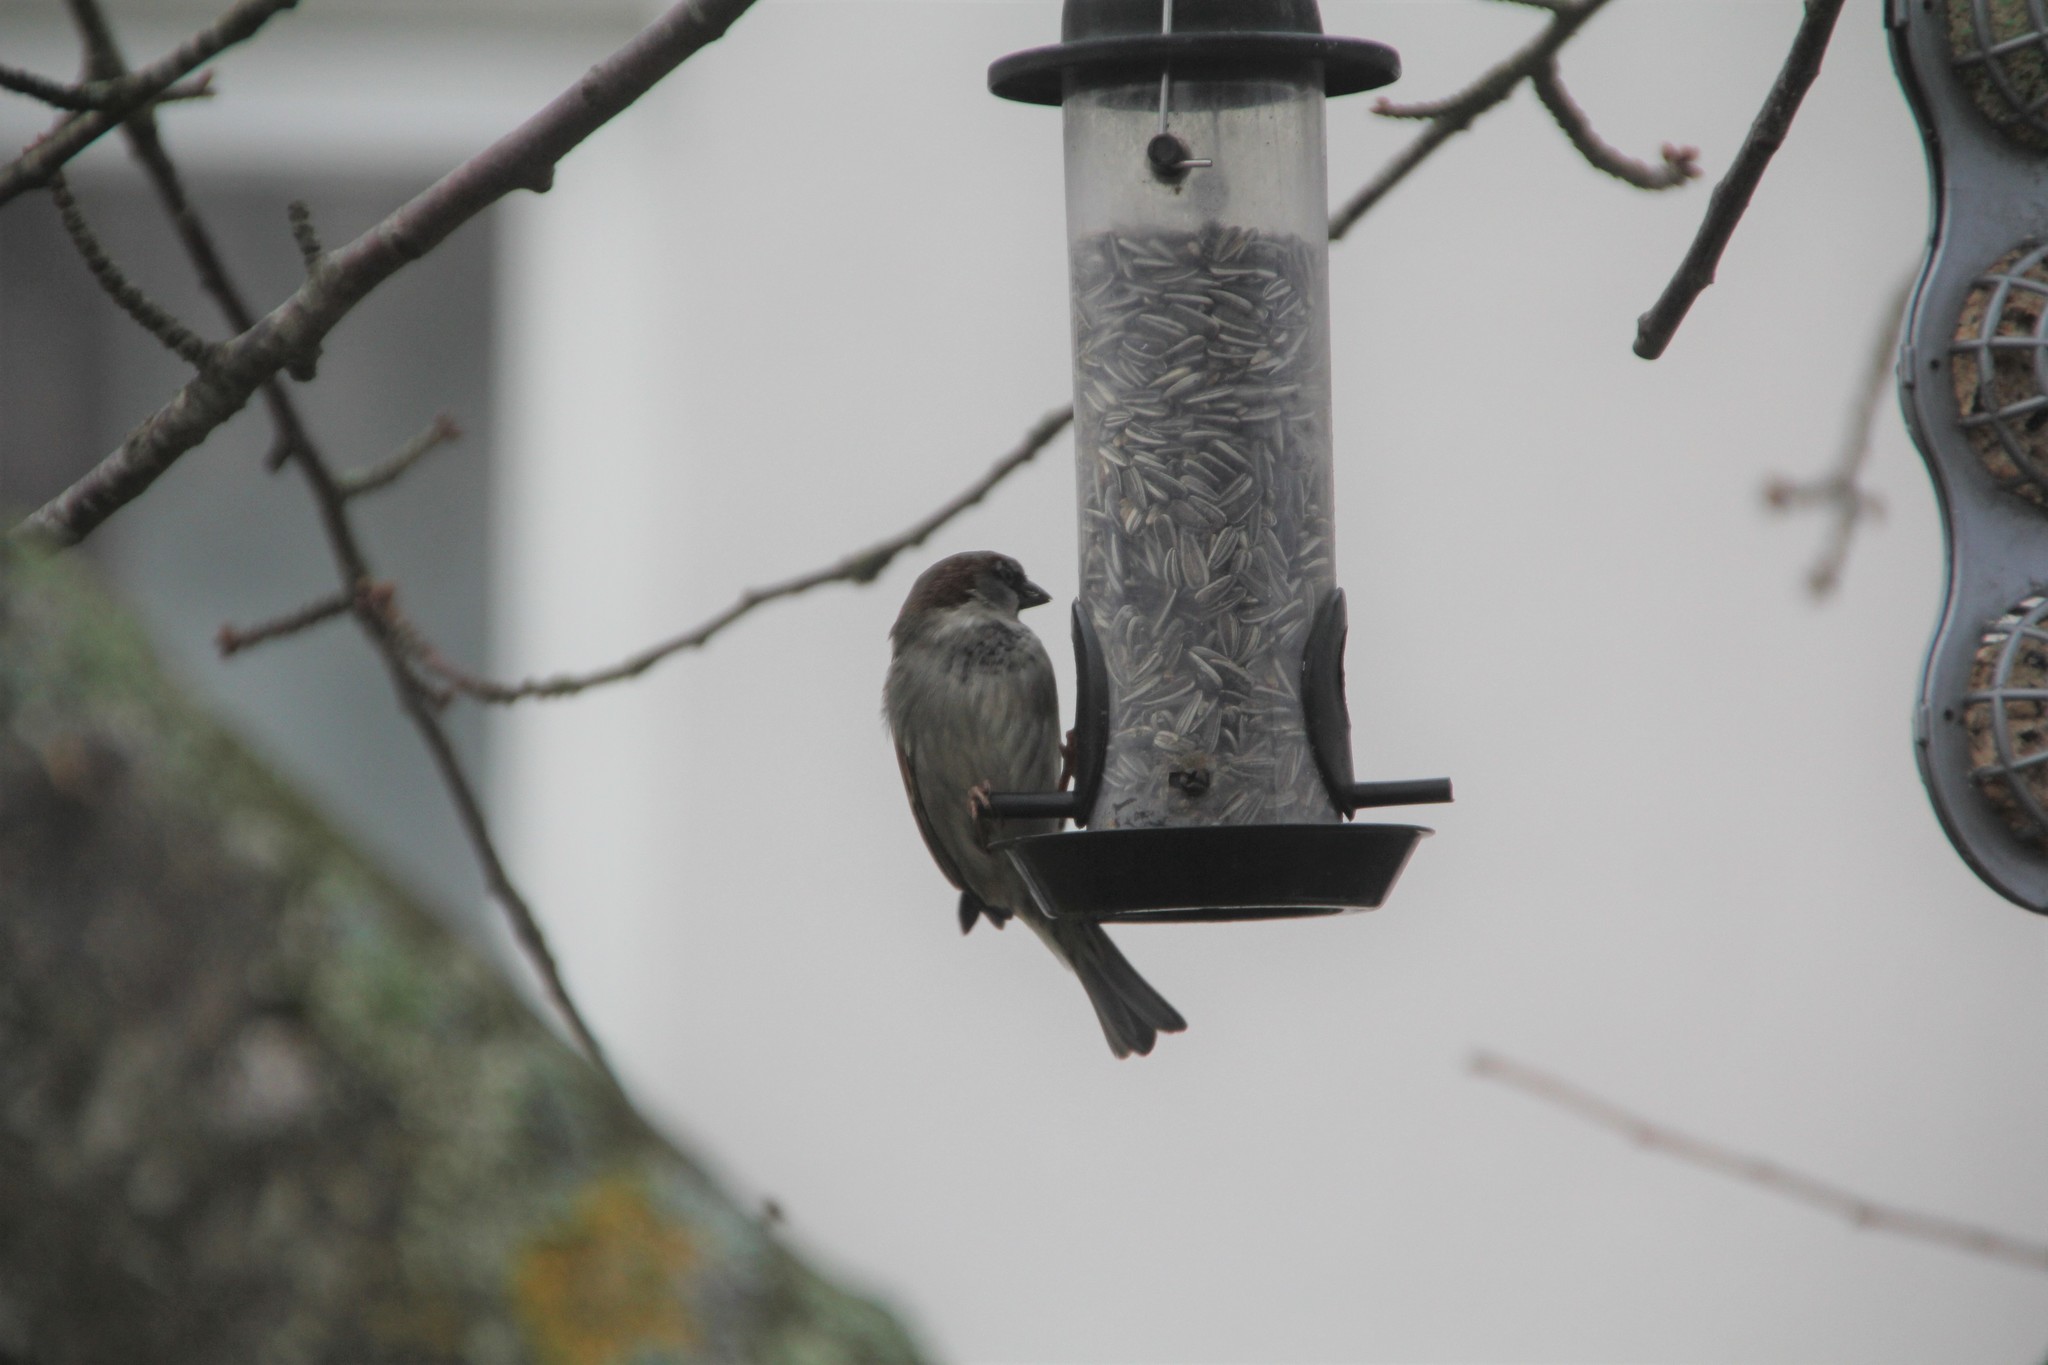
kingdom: Animalia
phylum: Chordata
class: Aves
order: Passeriformes
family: Passeridae
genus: Passer
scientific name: Passer domesticus
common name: House sparrow
